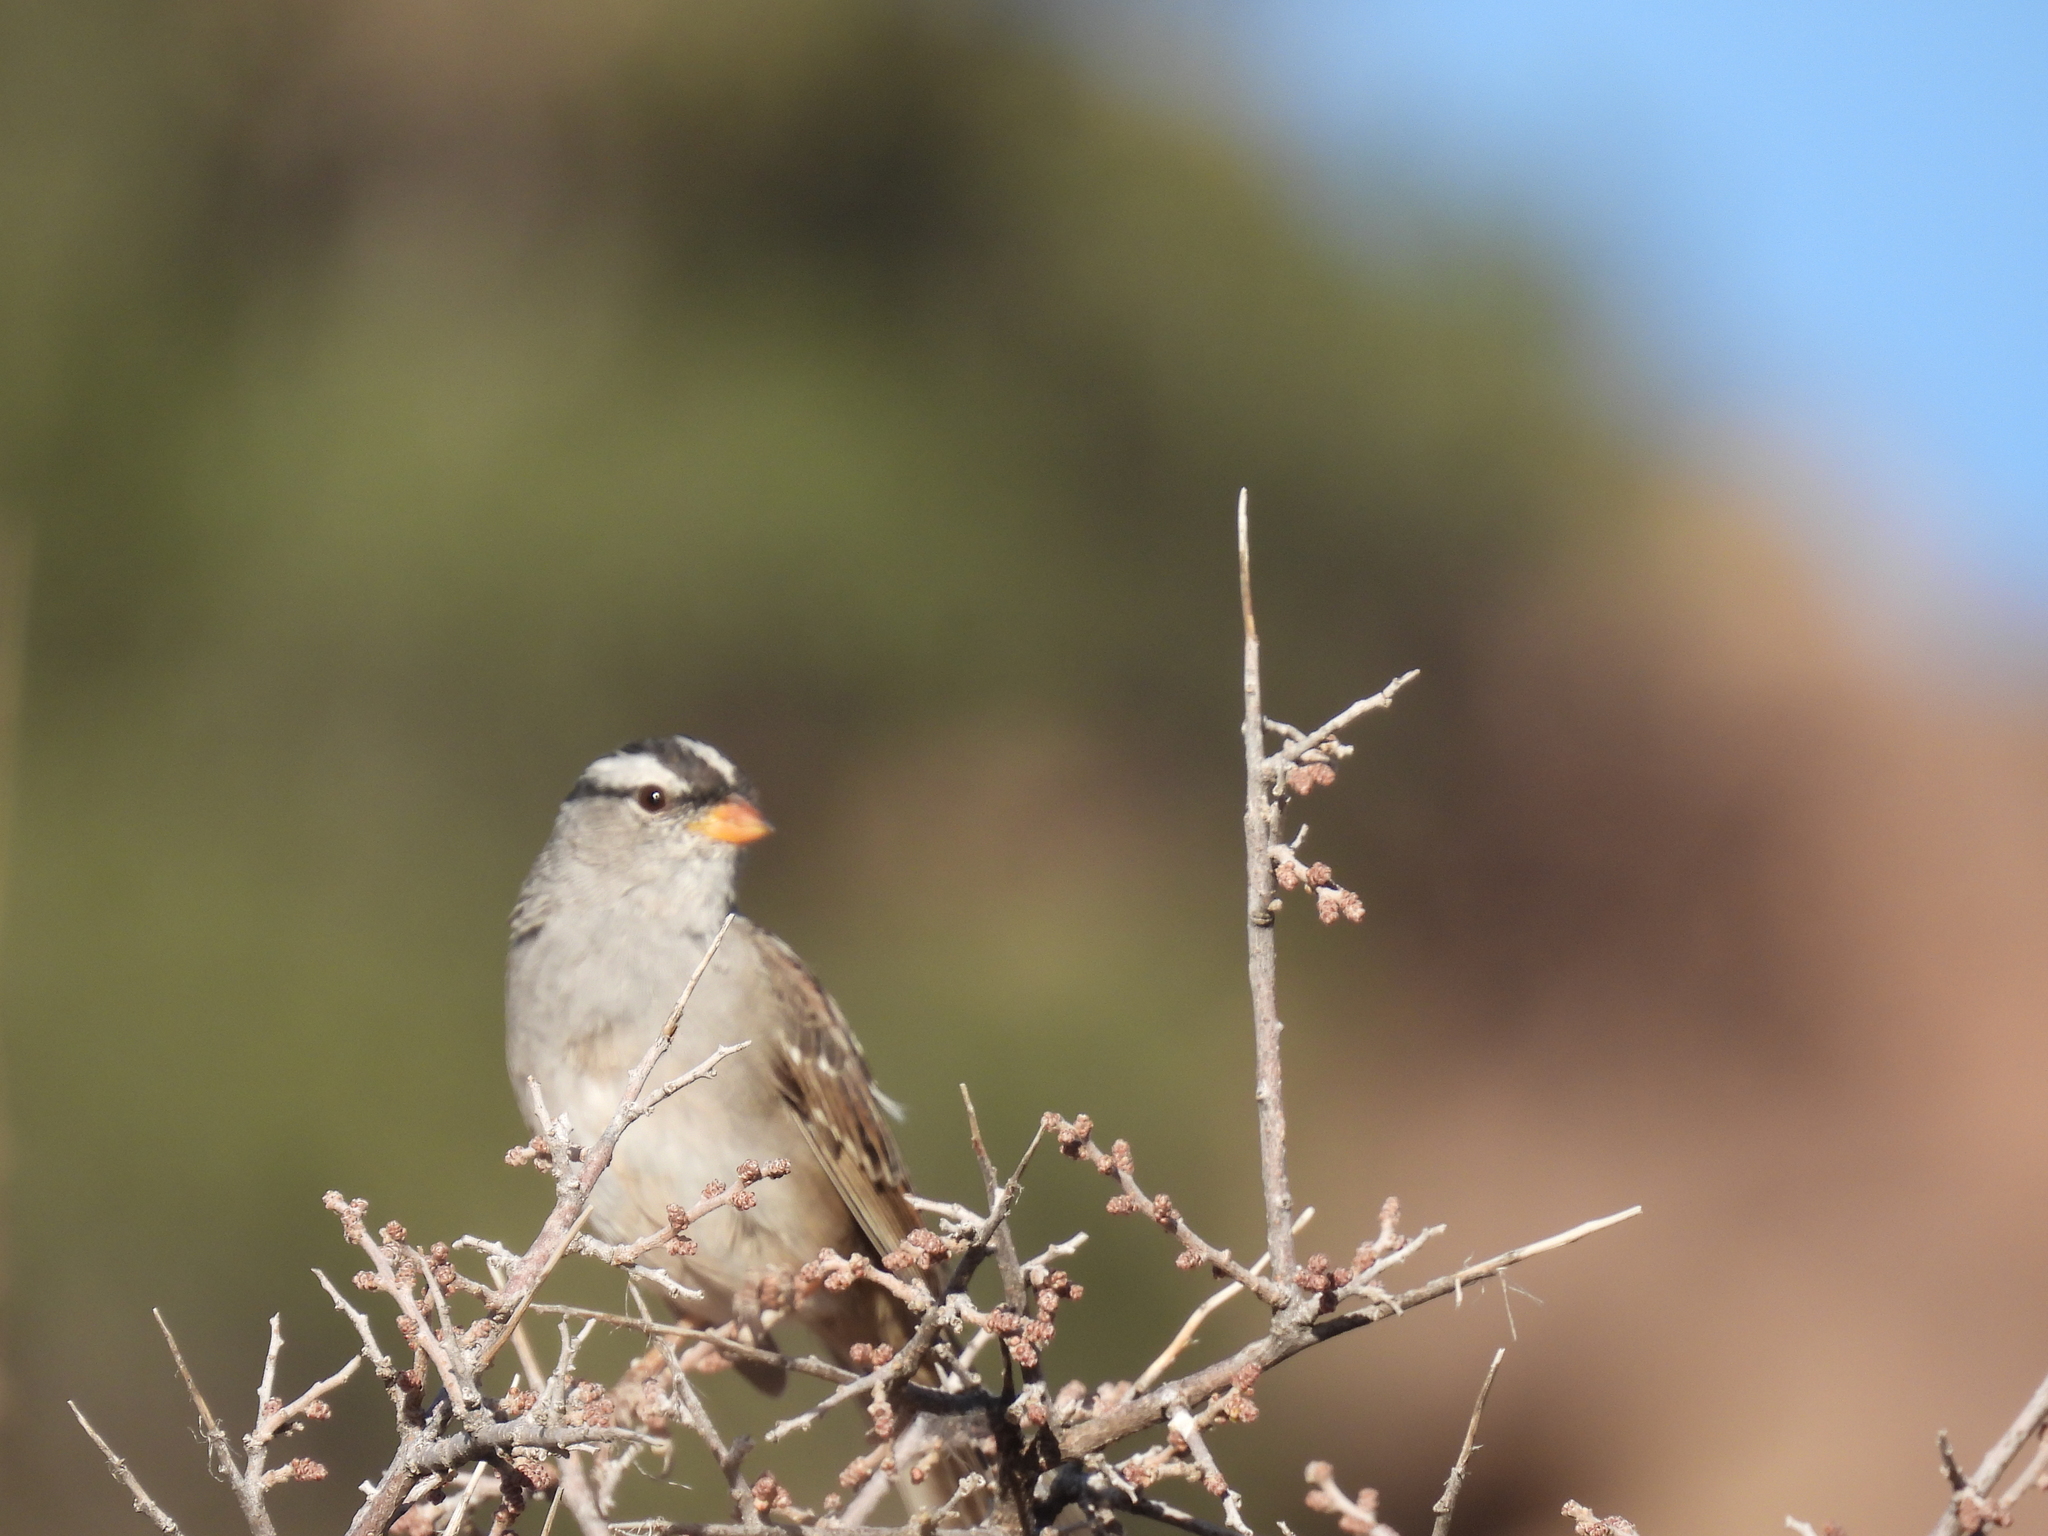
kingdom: Animalia
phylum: Chordata
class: Aves
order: Passeriformes
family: Passerellidae
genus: Zonotrichia
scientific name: Zonotrichia leucophrys
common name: White-crowned sparrow
